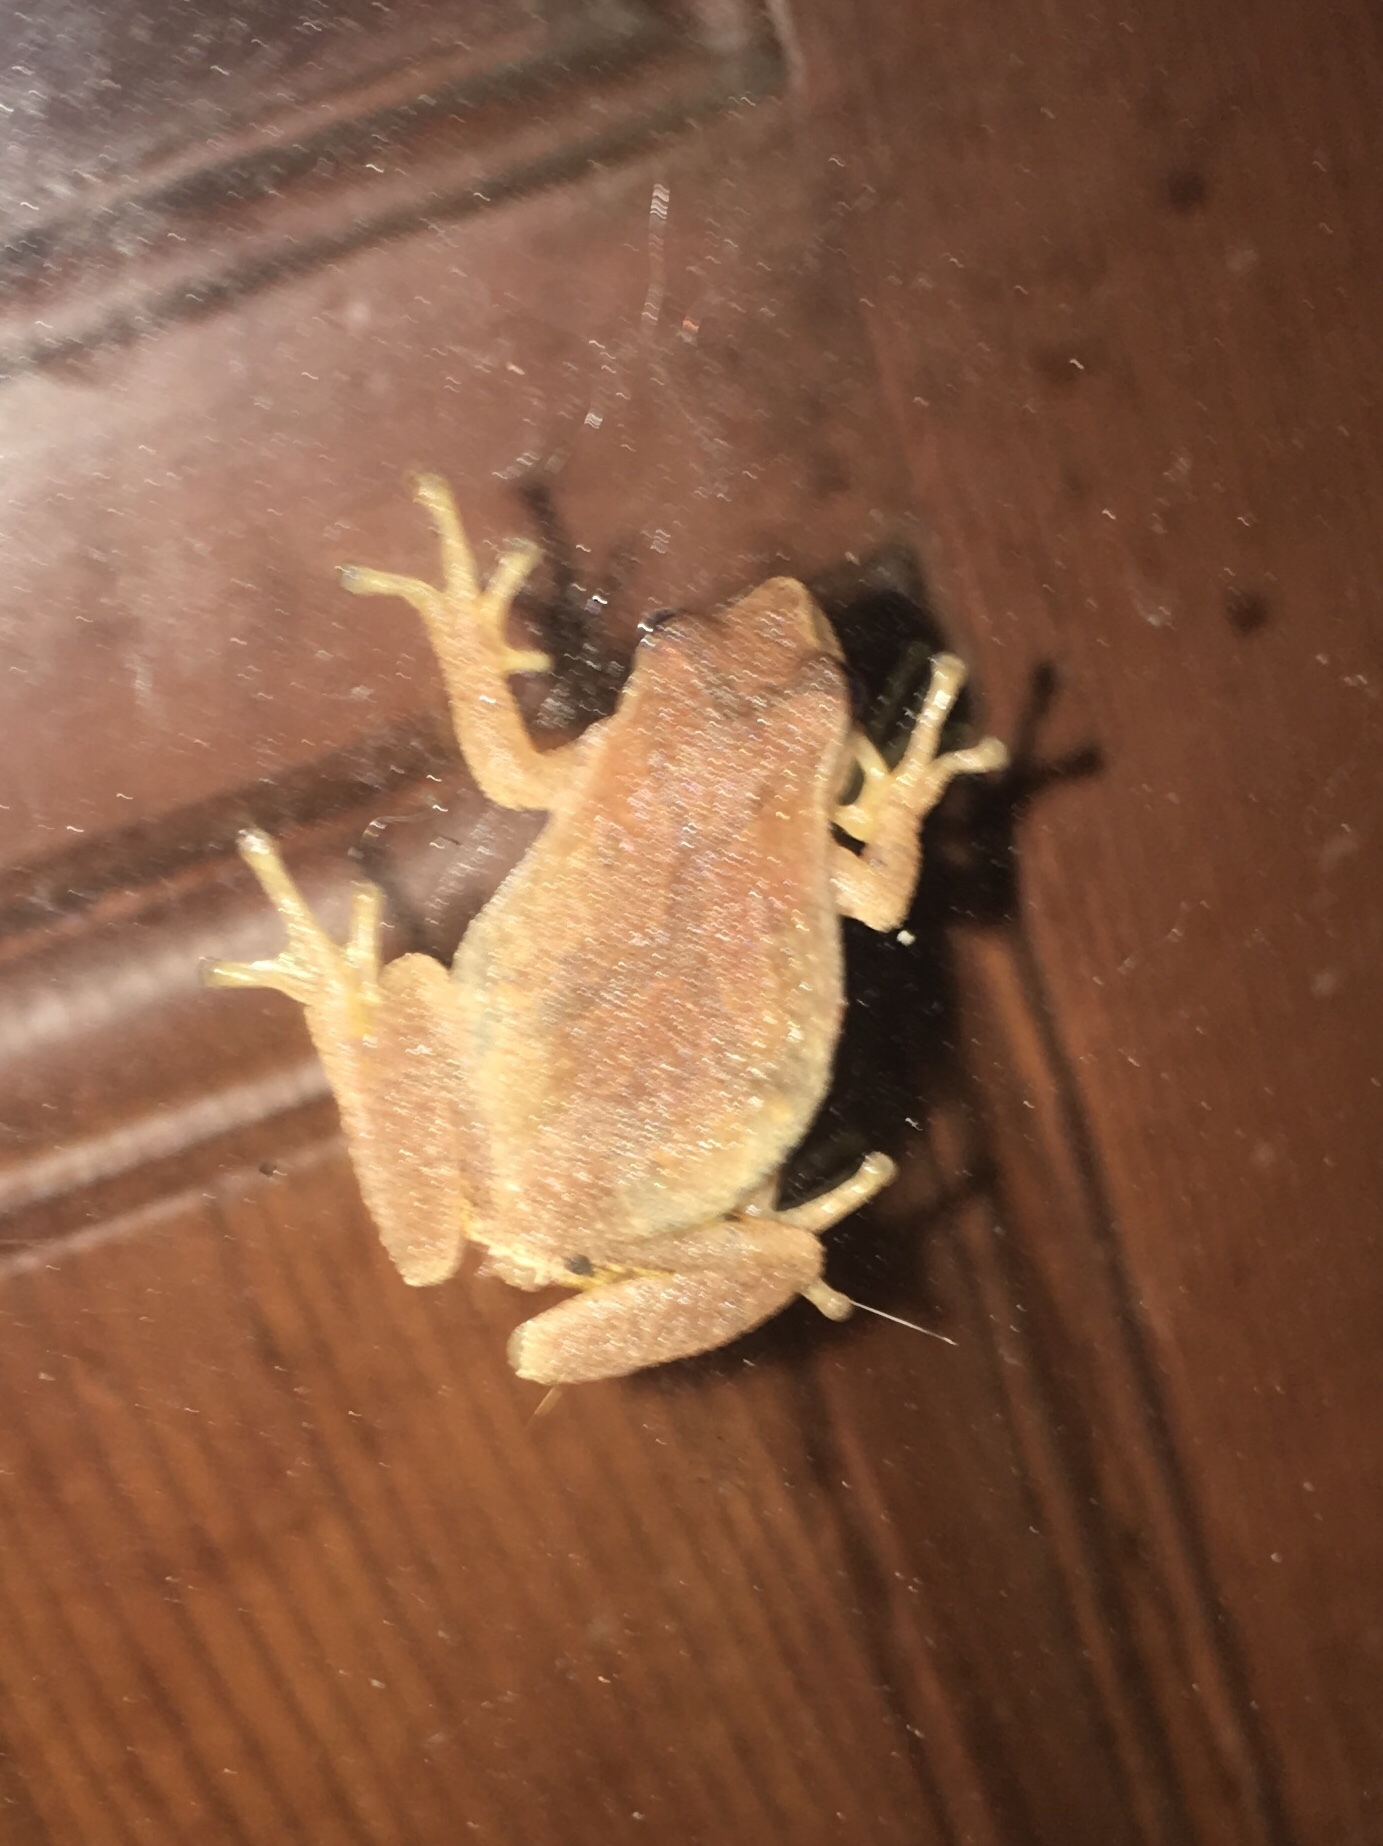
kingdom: Animalia
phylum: Chordata
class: Amphibia
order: Anura
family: Hylidae
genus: Pseudacris
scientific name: Pseudacris crucifer
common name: Spring peeper
